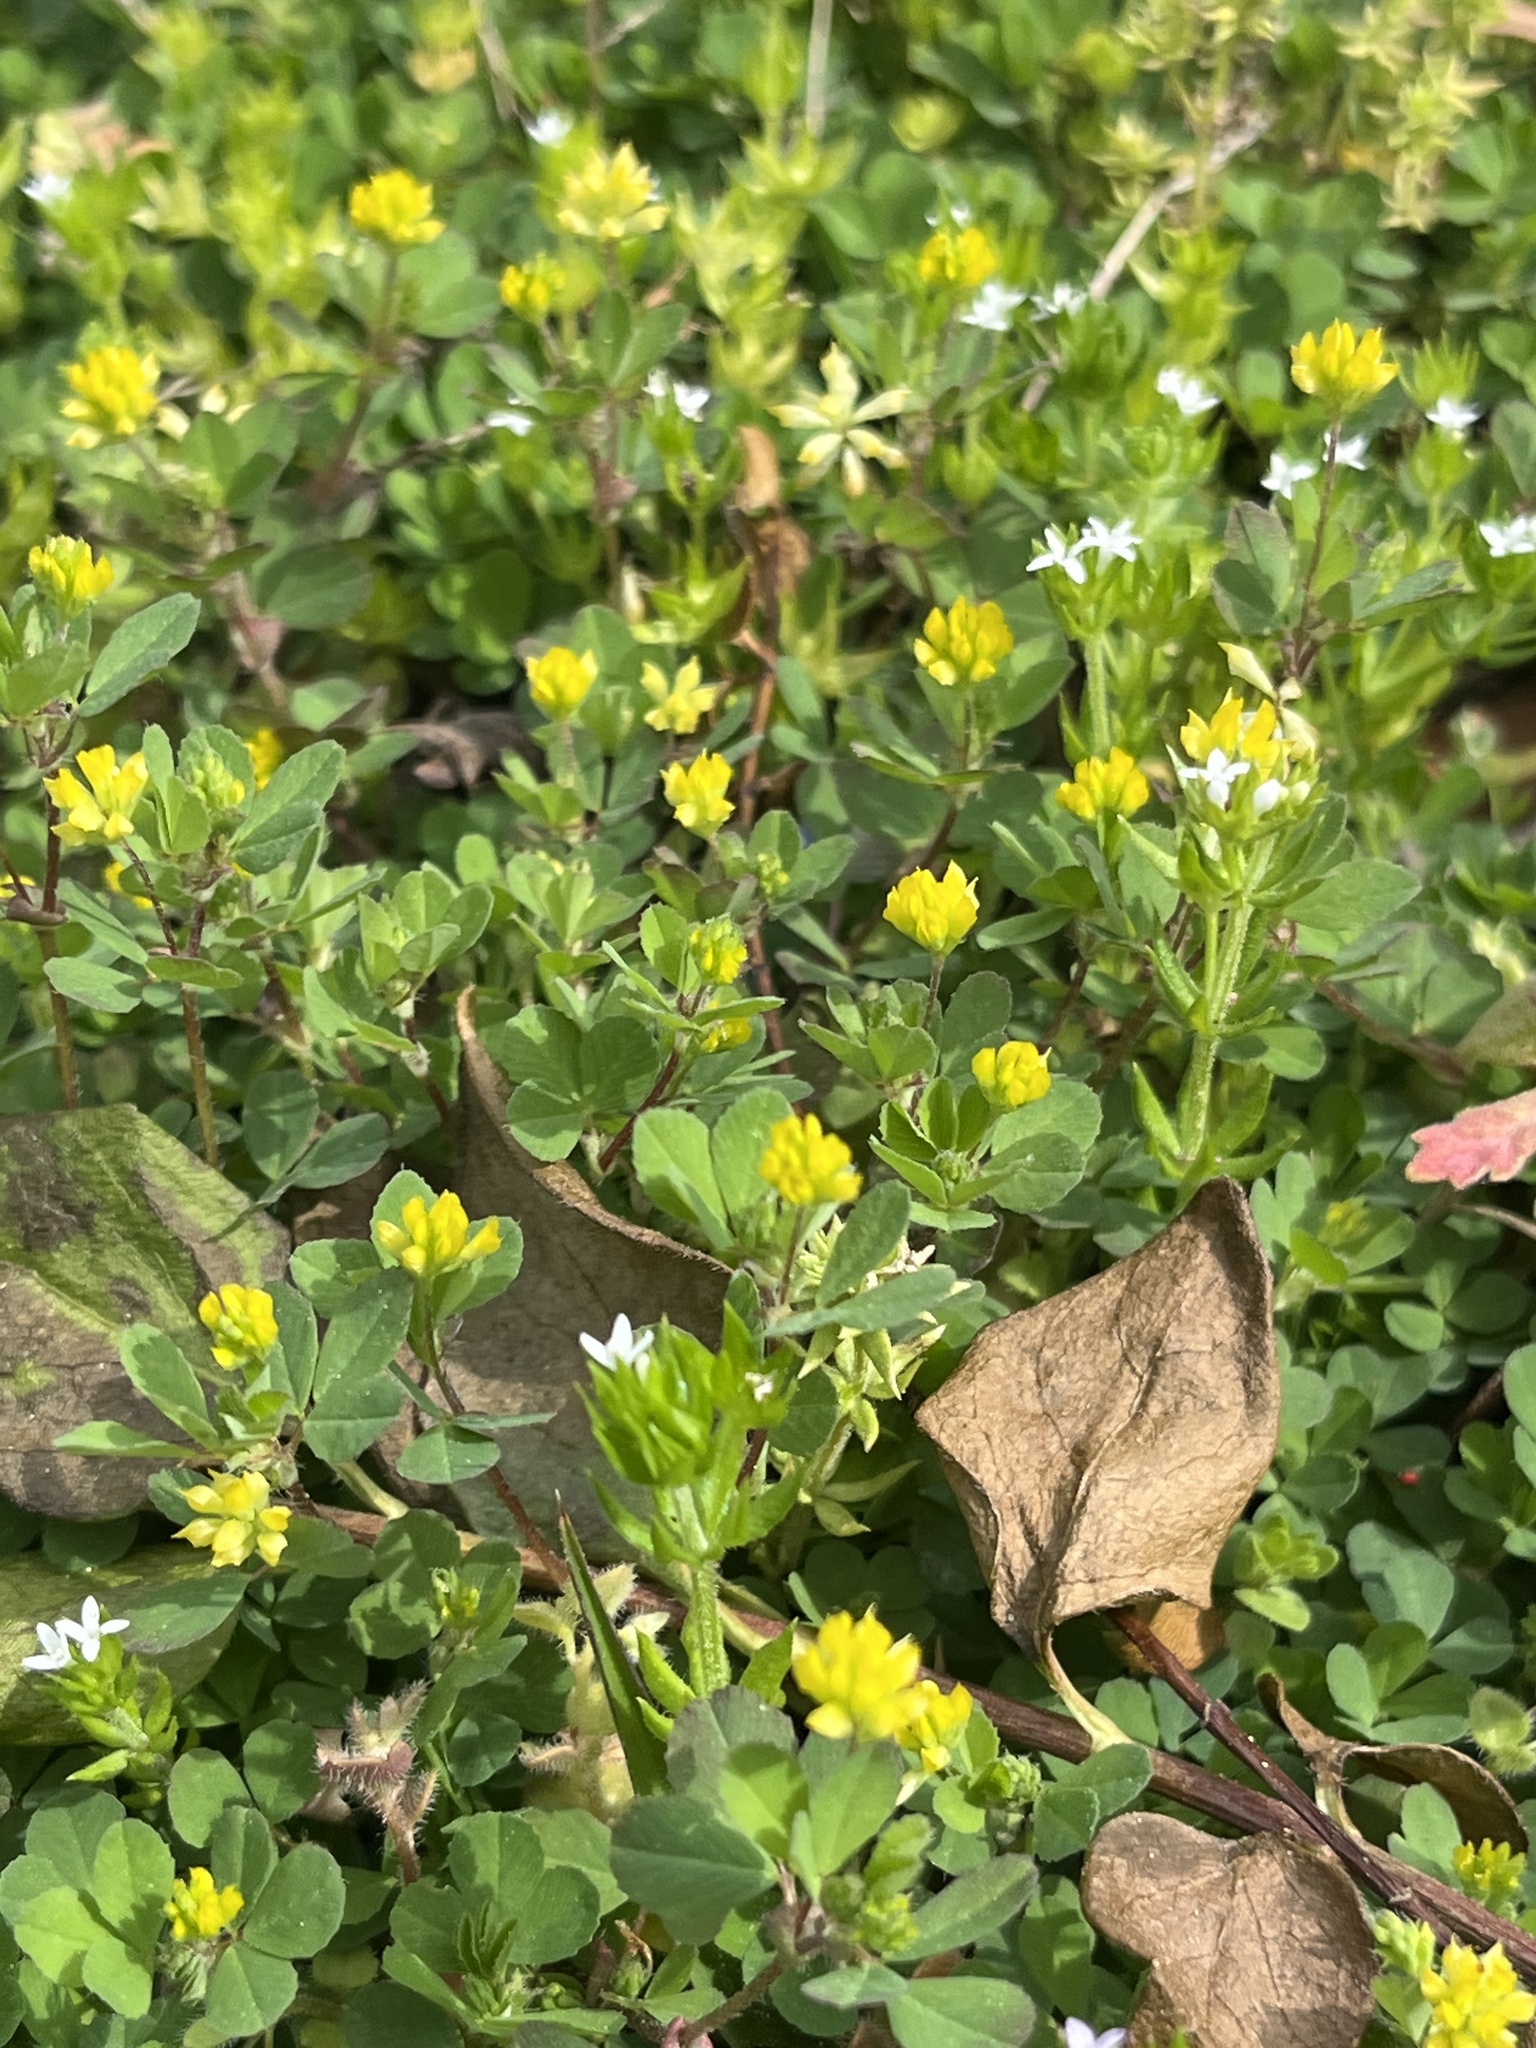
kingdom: Plantae
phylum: Tracheophyta
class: Magnoliopsida
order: Fabales
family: Fabaceae
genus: Trifolium
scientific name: Trifolium dubium
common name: Suckling clover
